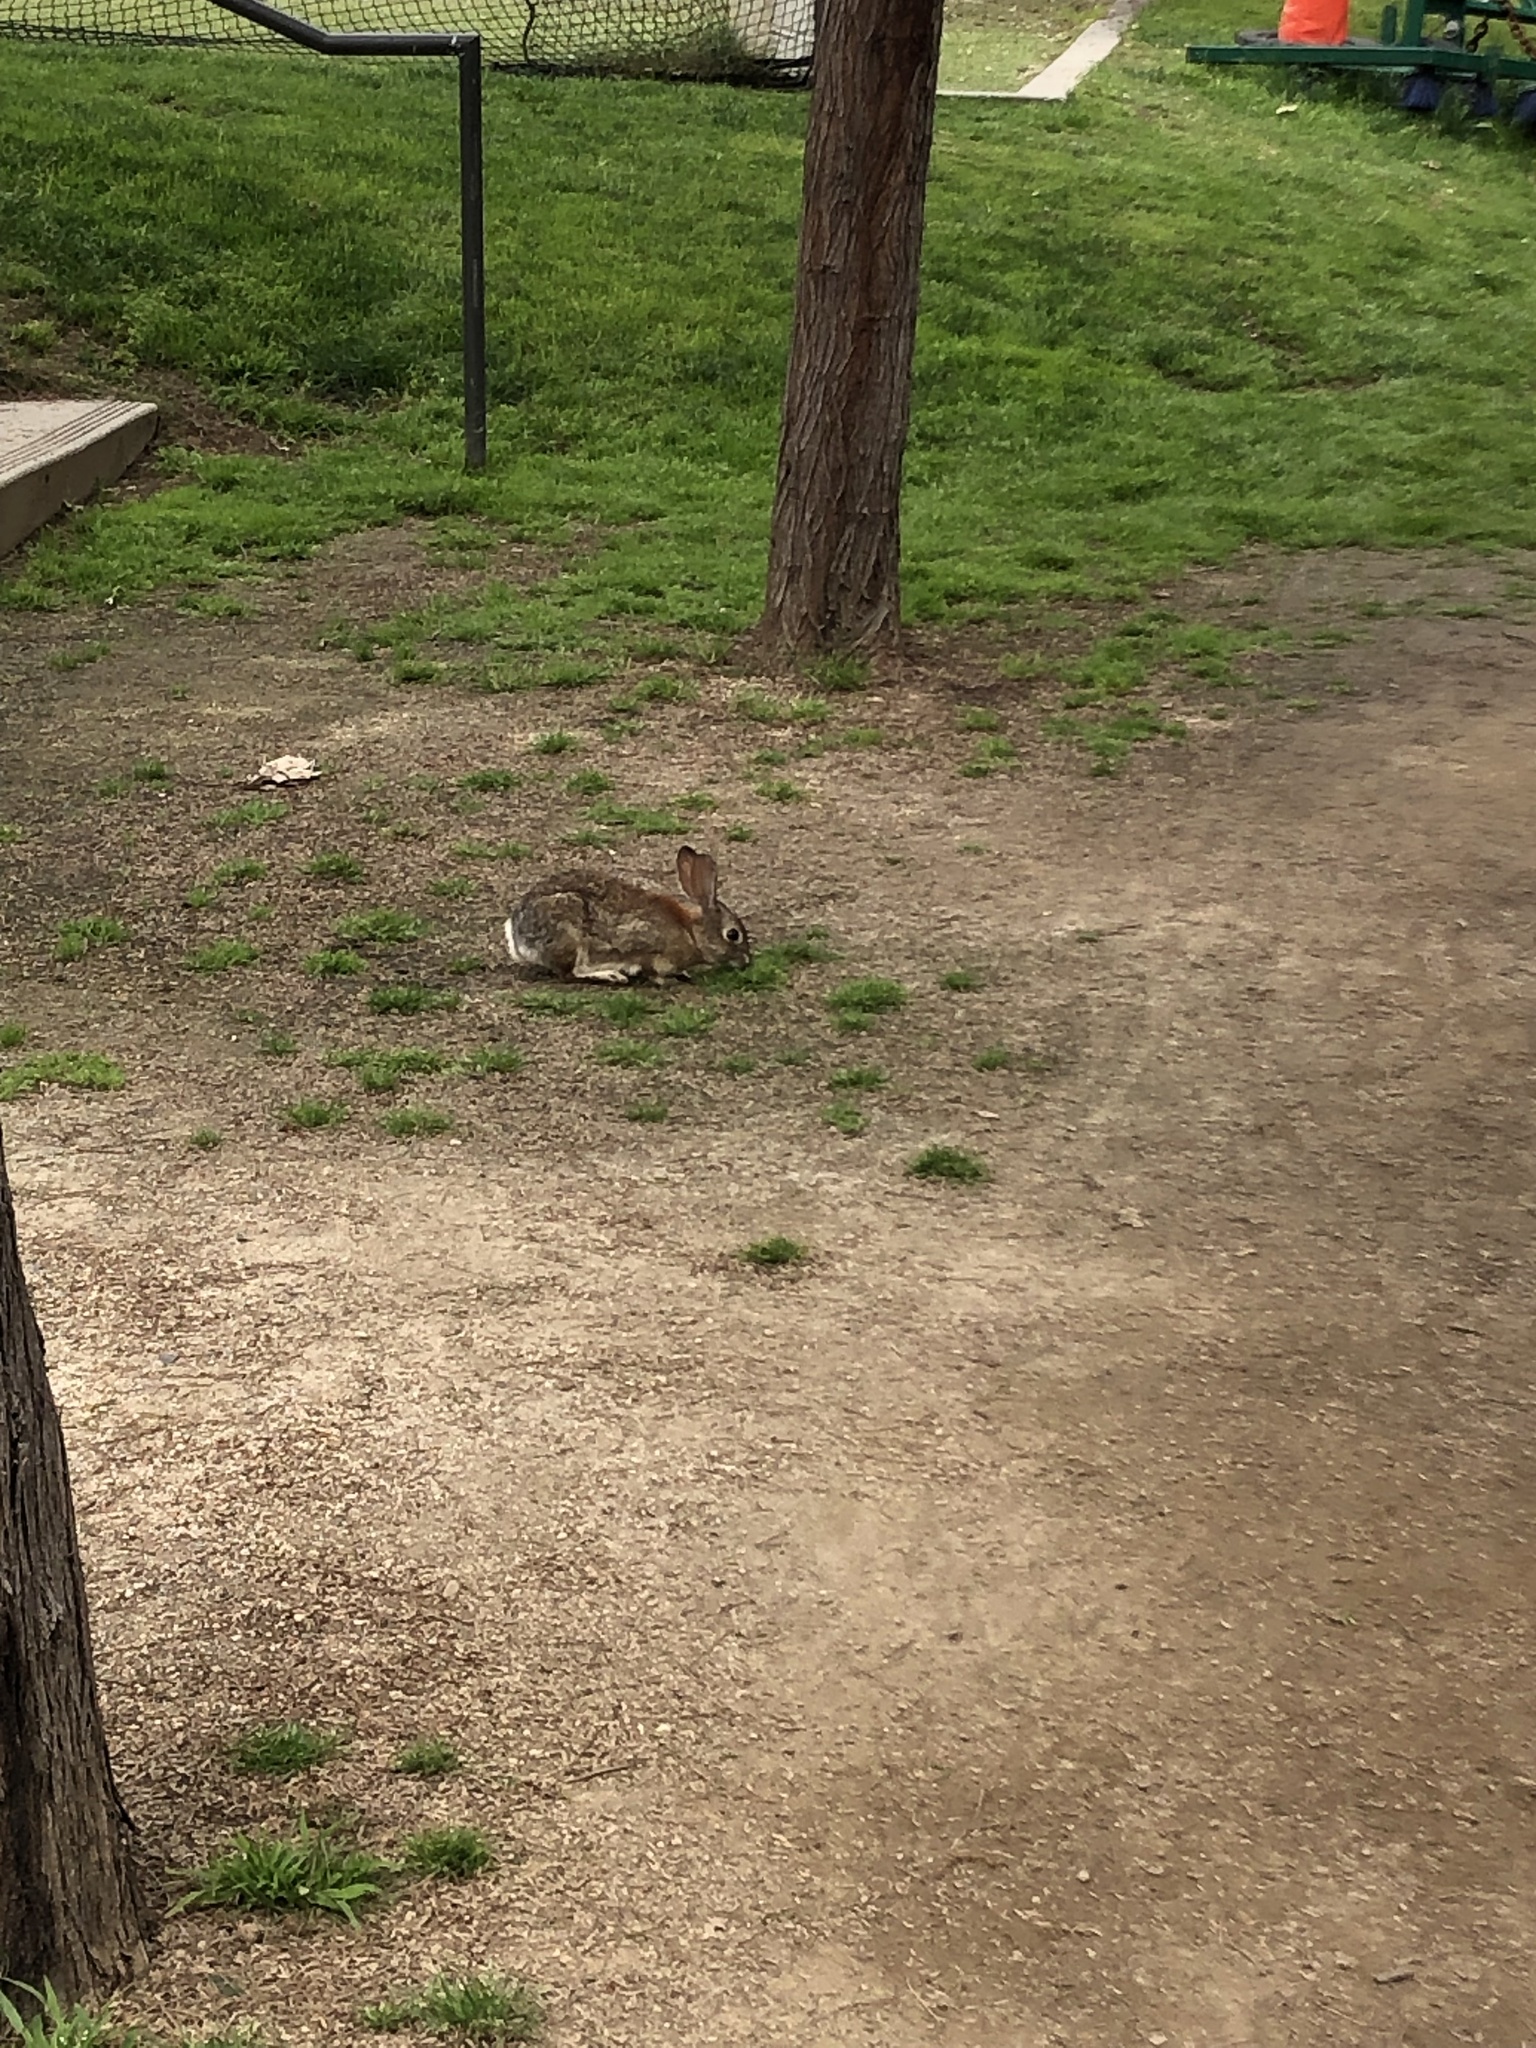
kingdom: Animalia
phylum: Chordata
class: Mammalia
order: Lagomorpha
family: Leporidae
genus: Sylvilagus
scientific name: Sylvilagus audubonii
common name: Desert cottontail
